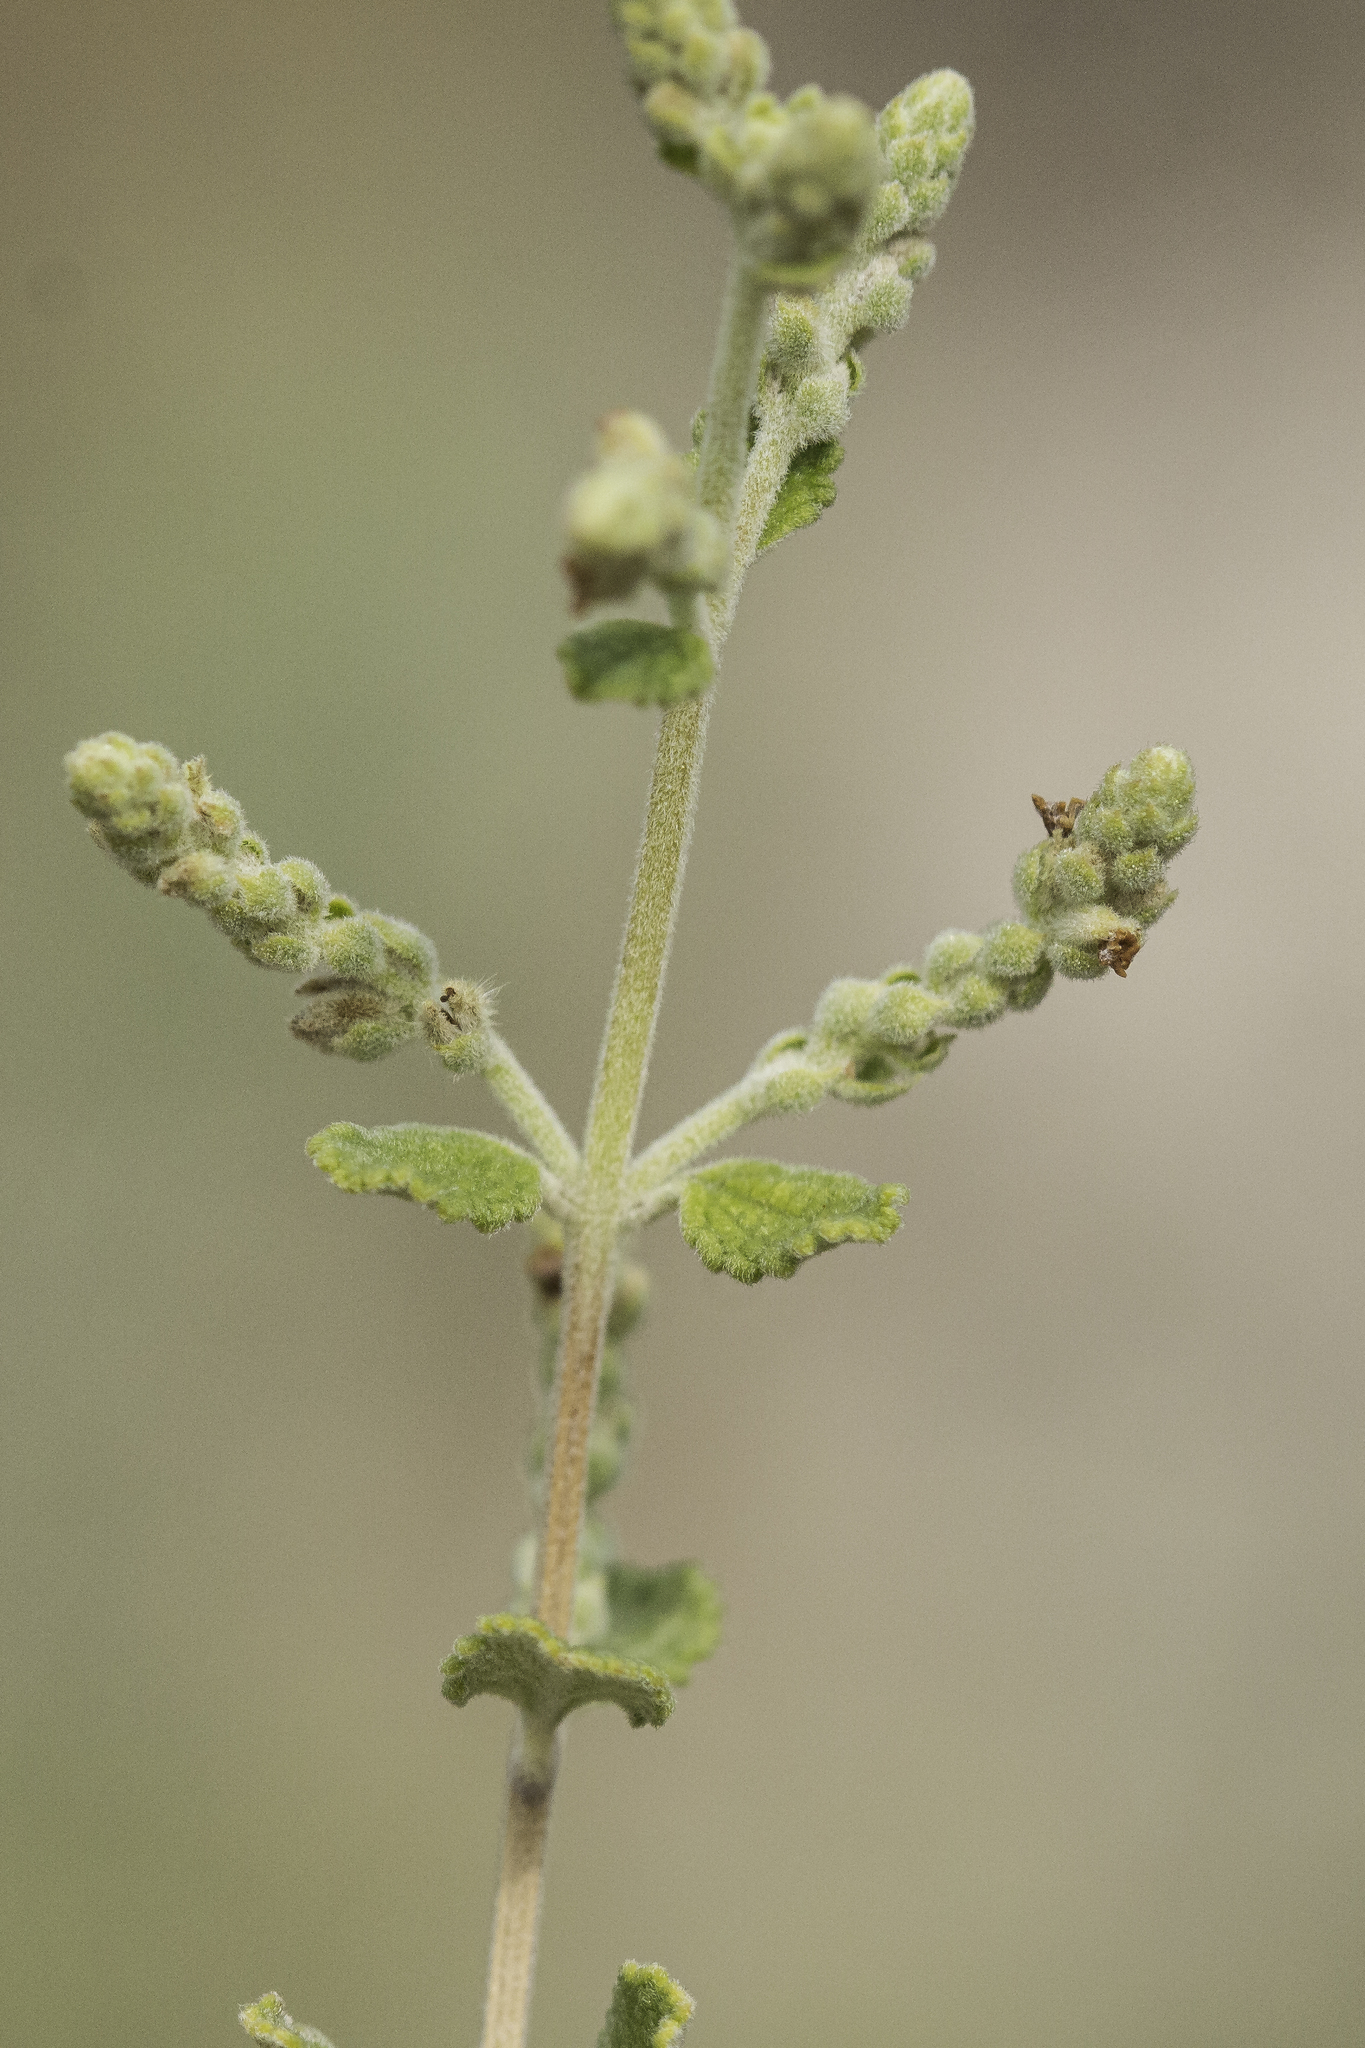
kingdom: Plantae
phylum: Tracheophyta
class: Magnoliopsida
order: Lamiales
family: Verbenaceae
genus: Aloysia
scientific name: Aloysia wrightii
